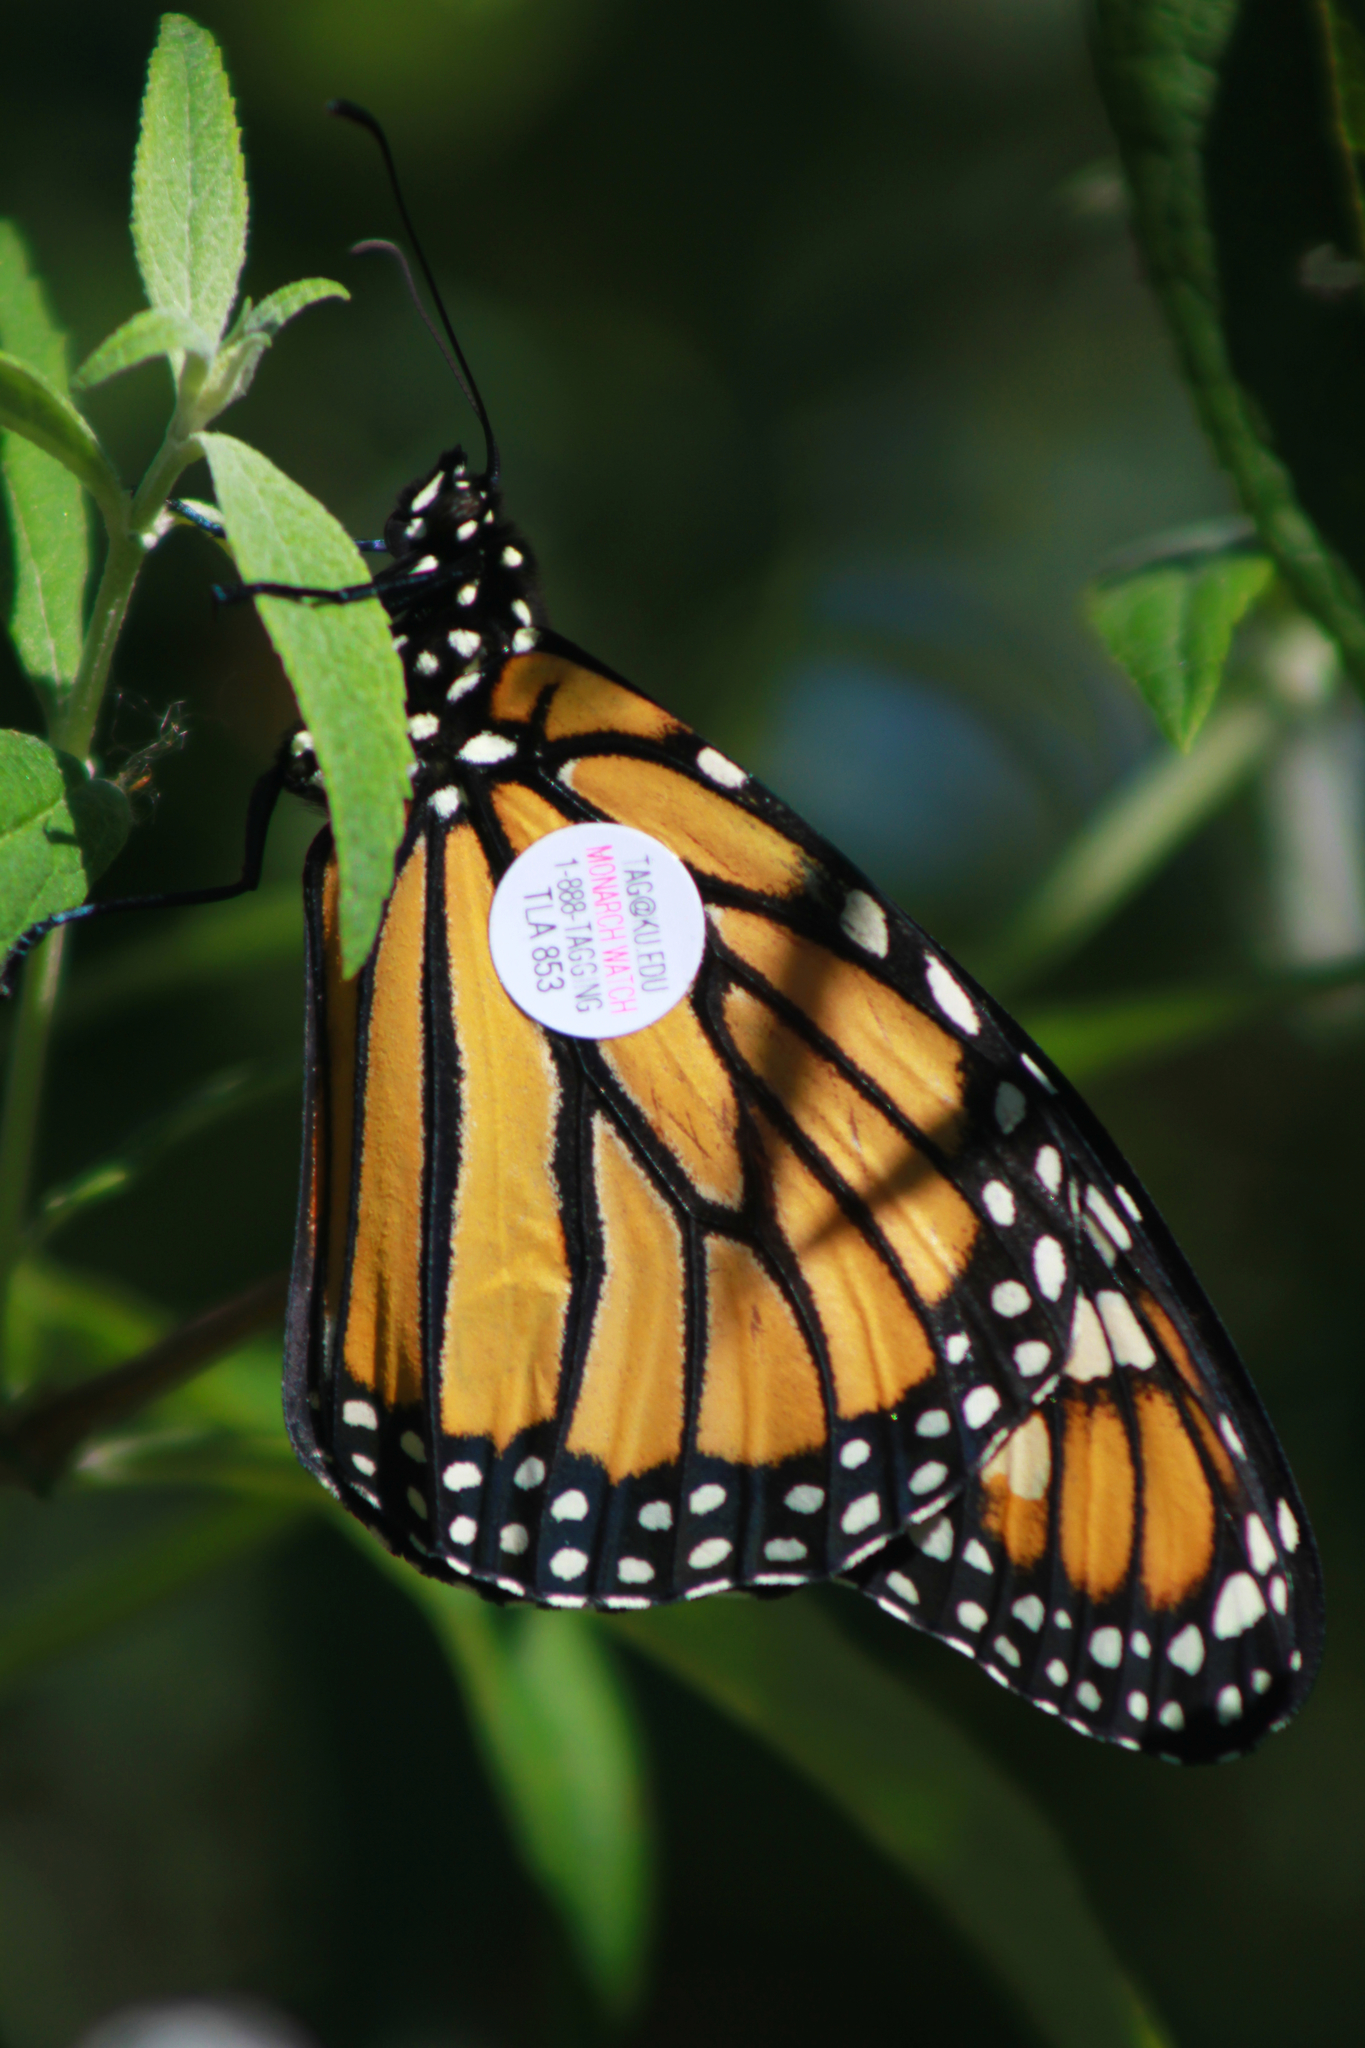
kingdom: Animalia
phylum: Arthropoda
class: Insecta
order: Lepidoptera
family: Nymphalidae
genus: Danaus
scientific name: Danaus plexippus
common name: Monarch
